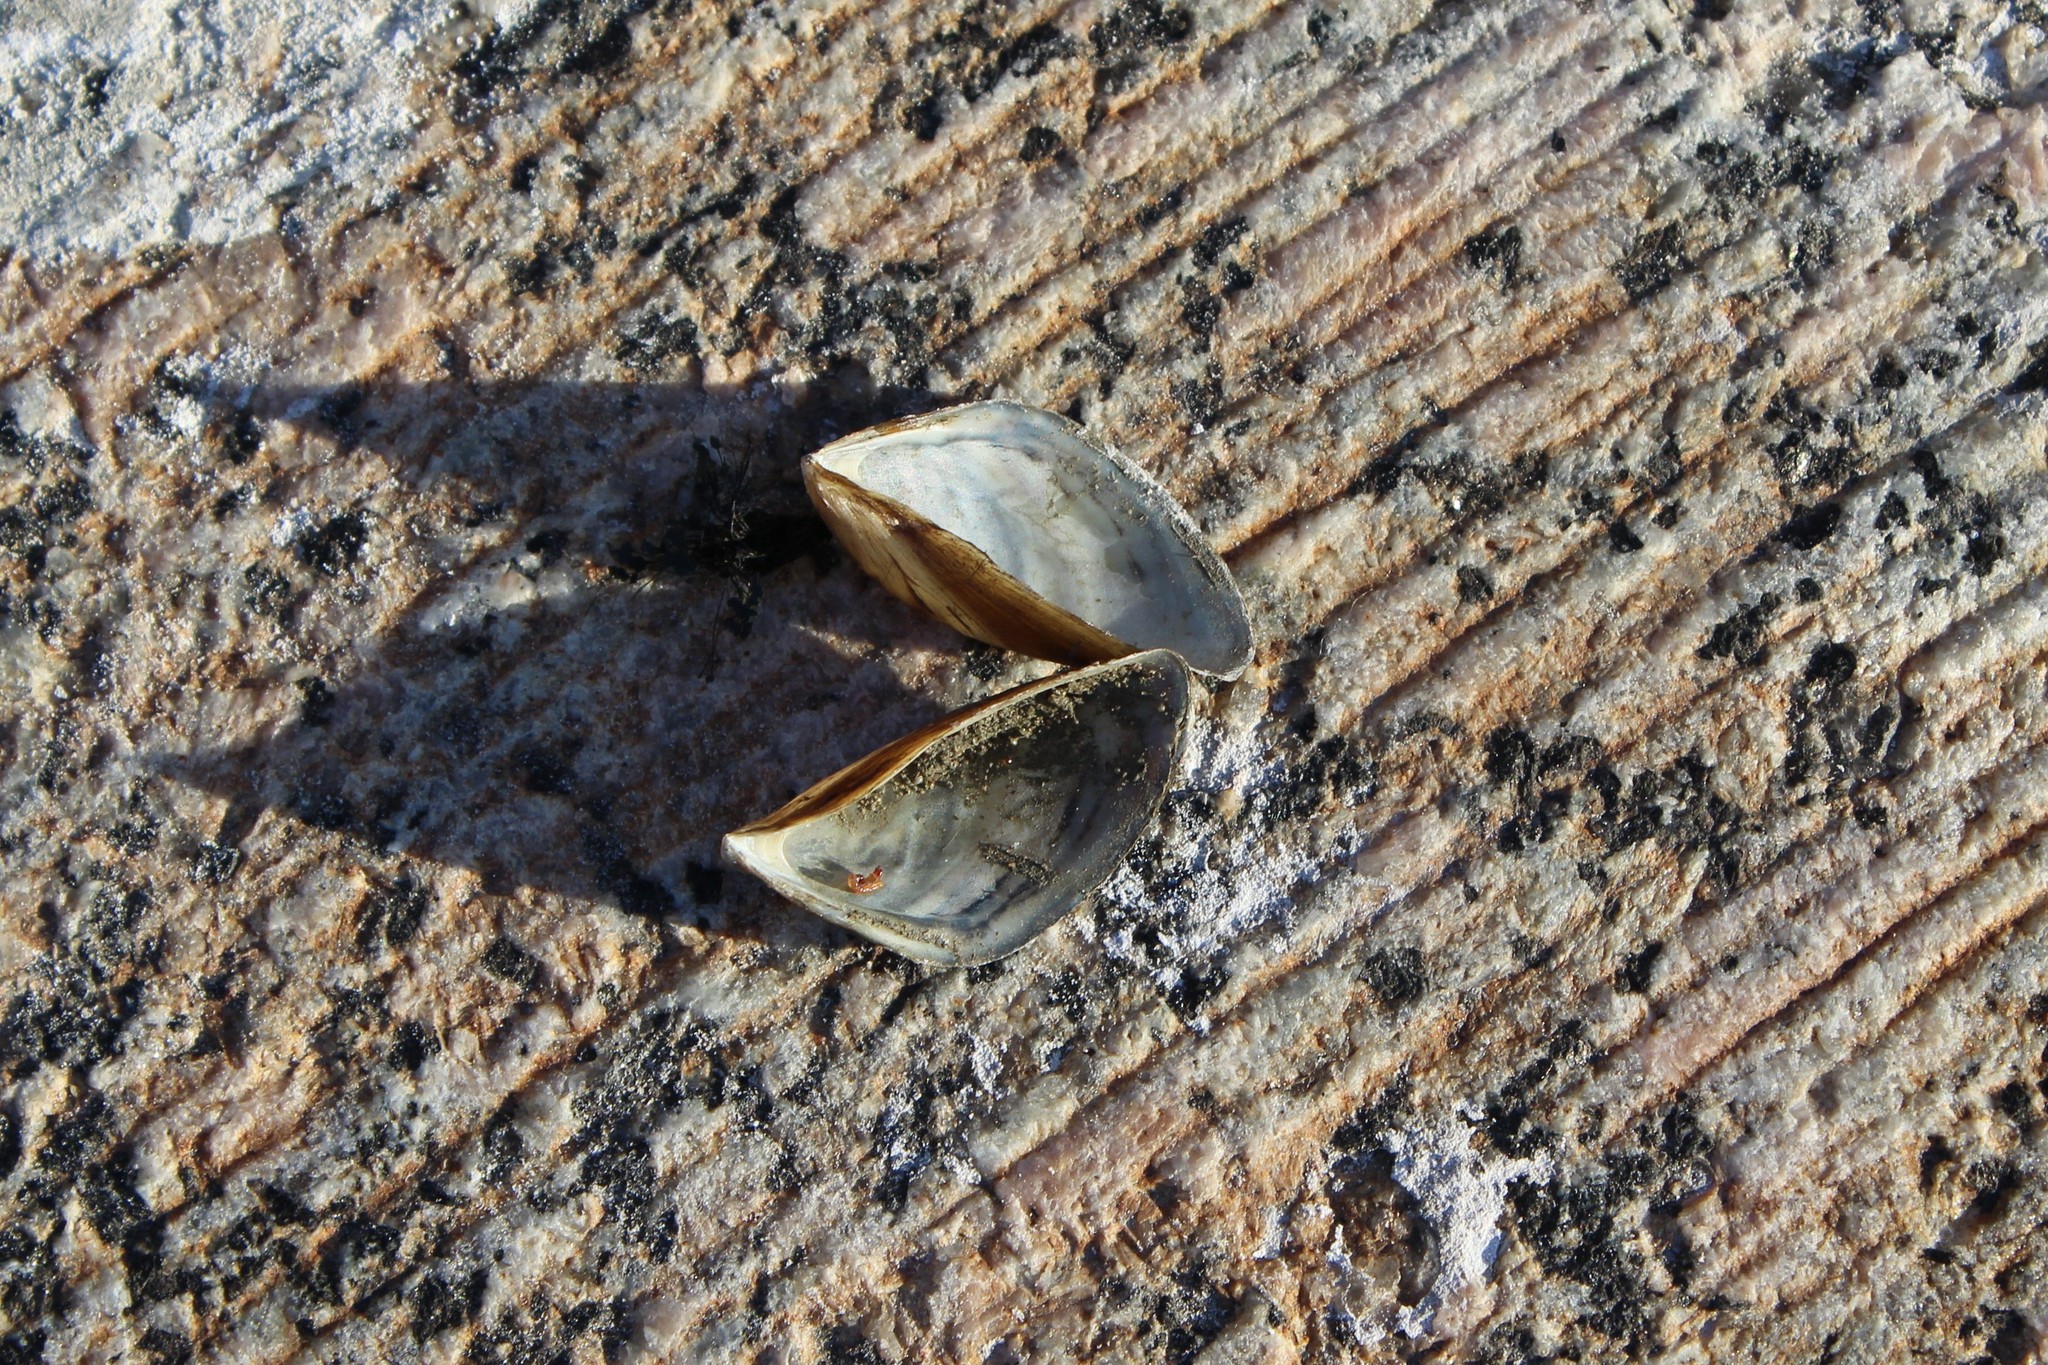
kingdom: Animalia
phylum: Mollusca
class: Bivalvia
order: Myida
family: Dreissenidae
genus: Dreissena
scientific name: Dreissena polymorpha
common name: Zebra mussel
